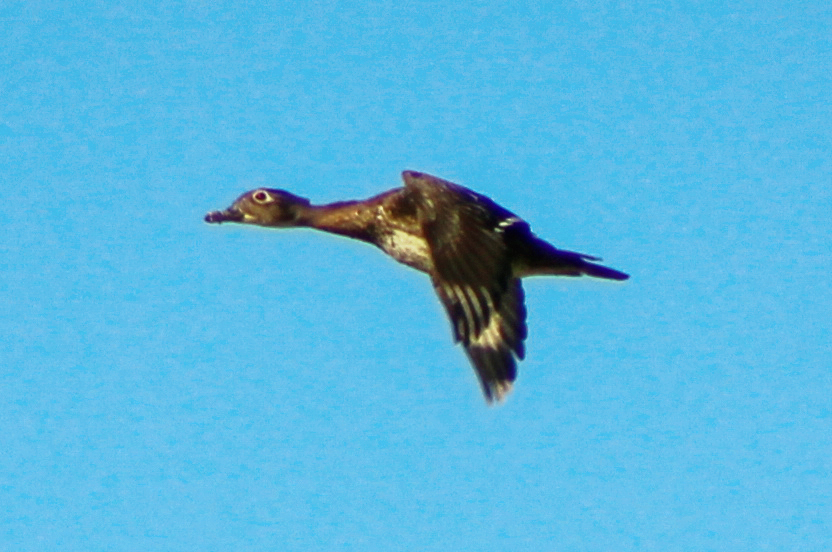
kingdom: Animalia
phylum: Chordata
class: Aves
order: Anseriformes
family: Anatidae
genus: Aix
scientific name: Aix sponsa
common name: Wood duck
